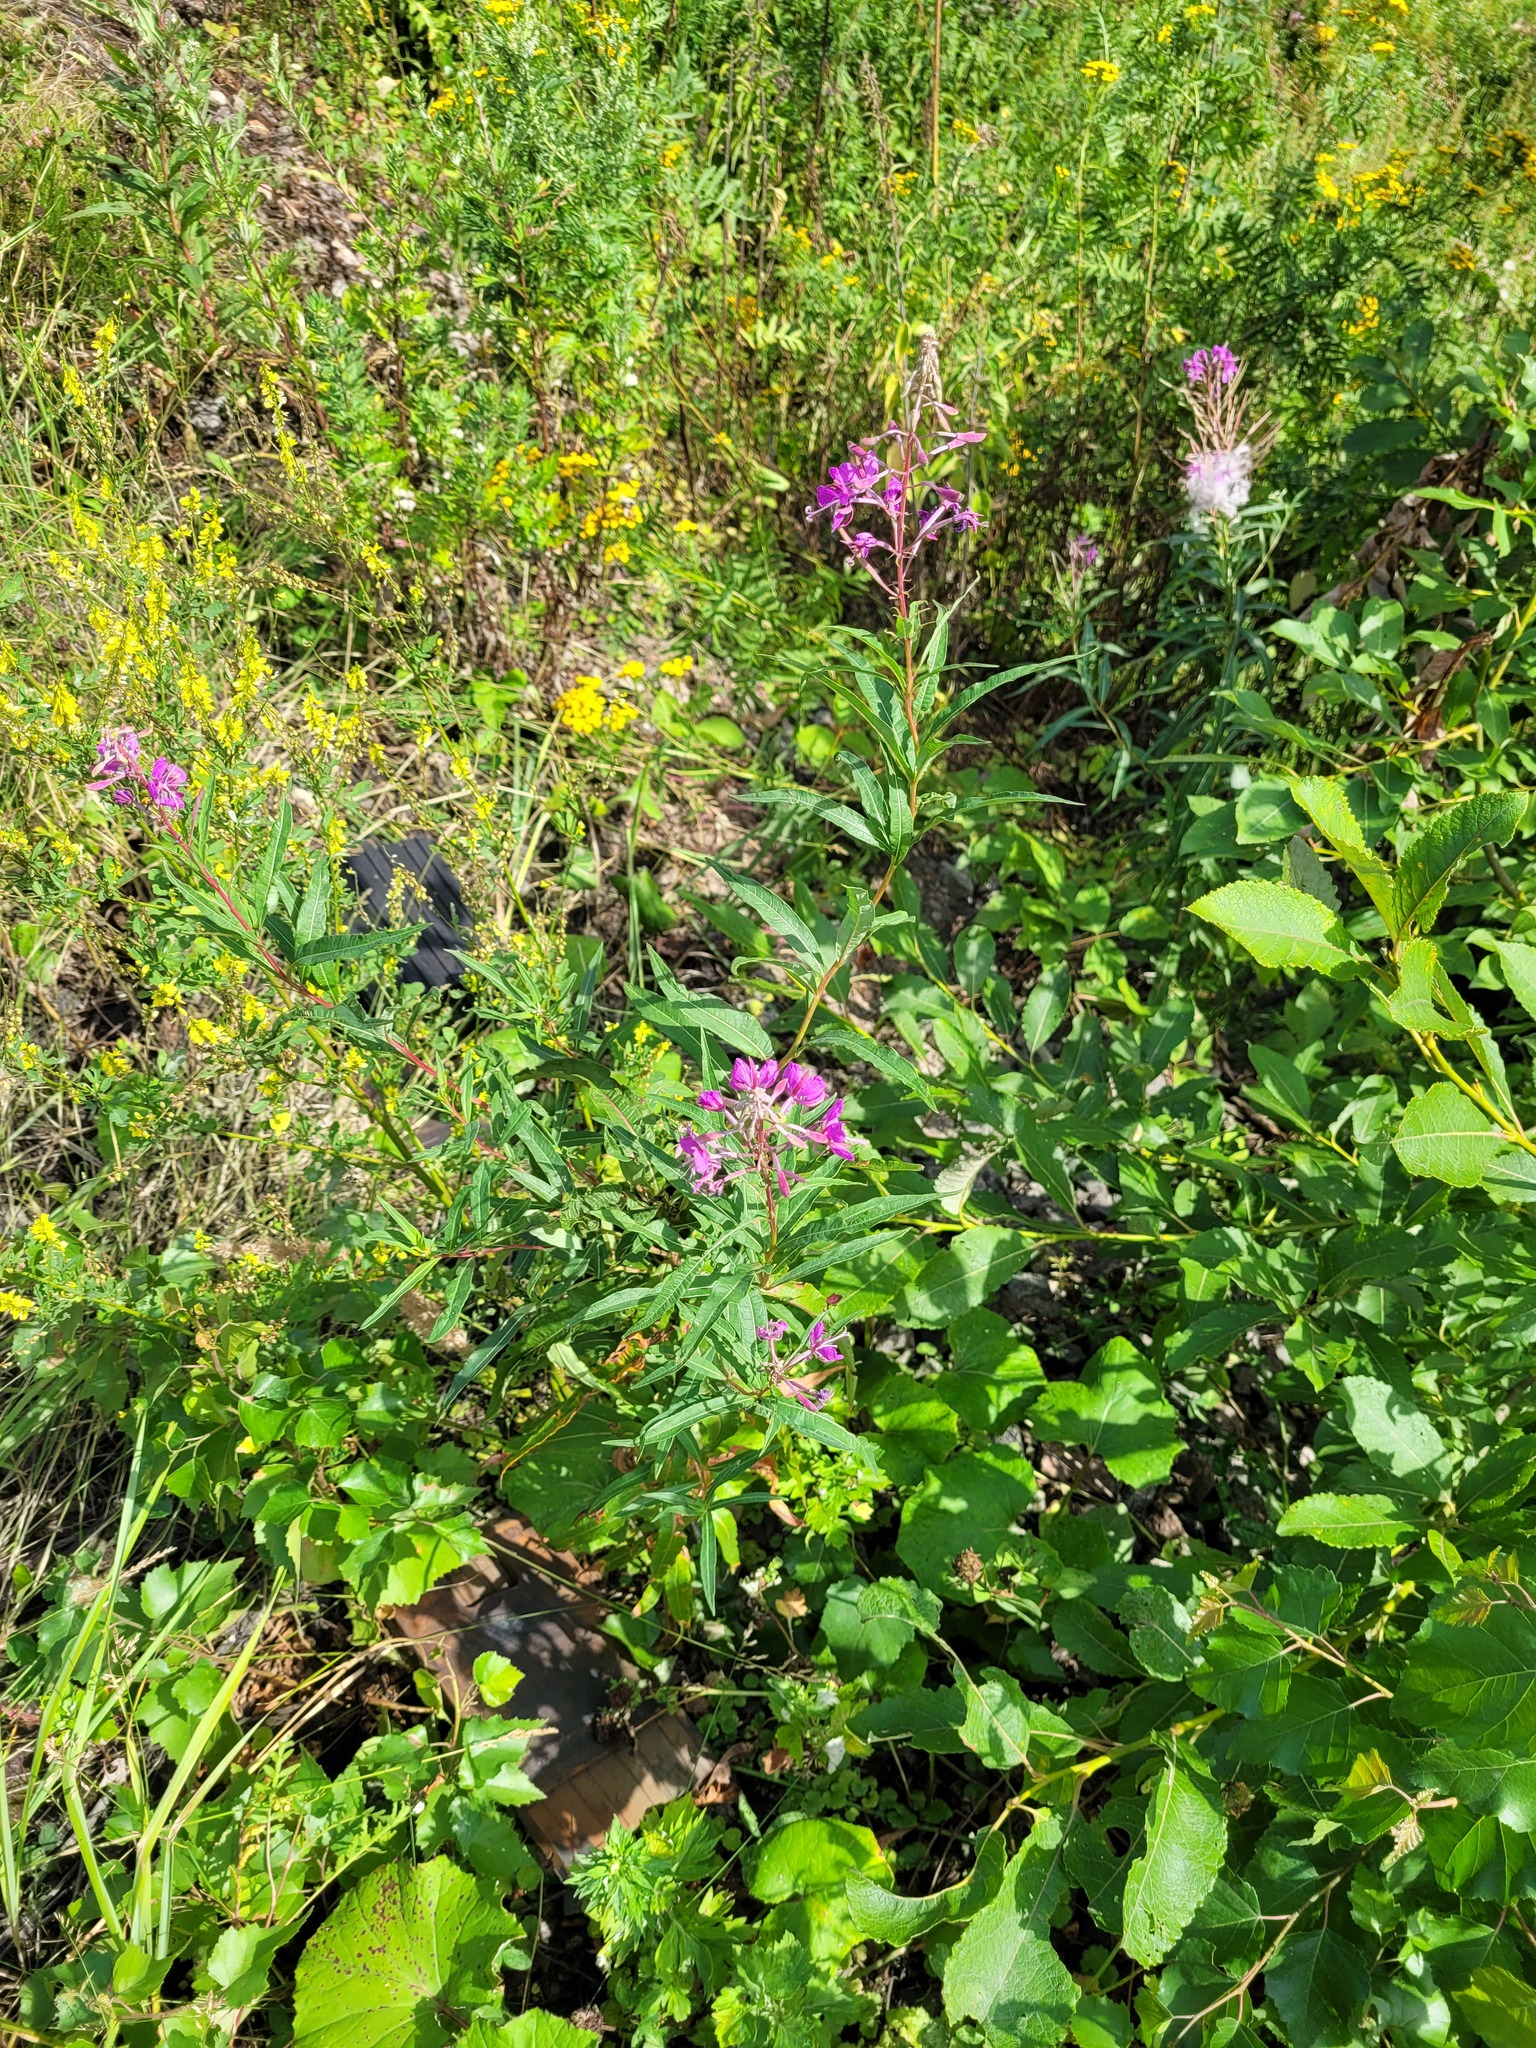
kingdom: Plantae
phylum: Tracheophyta
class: Magnoliopsida
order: Myrtales
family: Onagraceae
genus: Chamaenerion
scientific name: Chamaenerion angustifolium
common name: Fireweed
